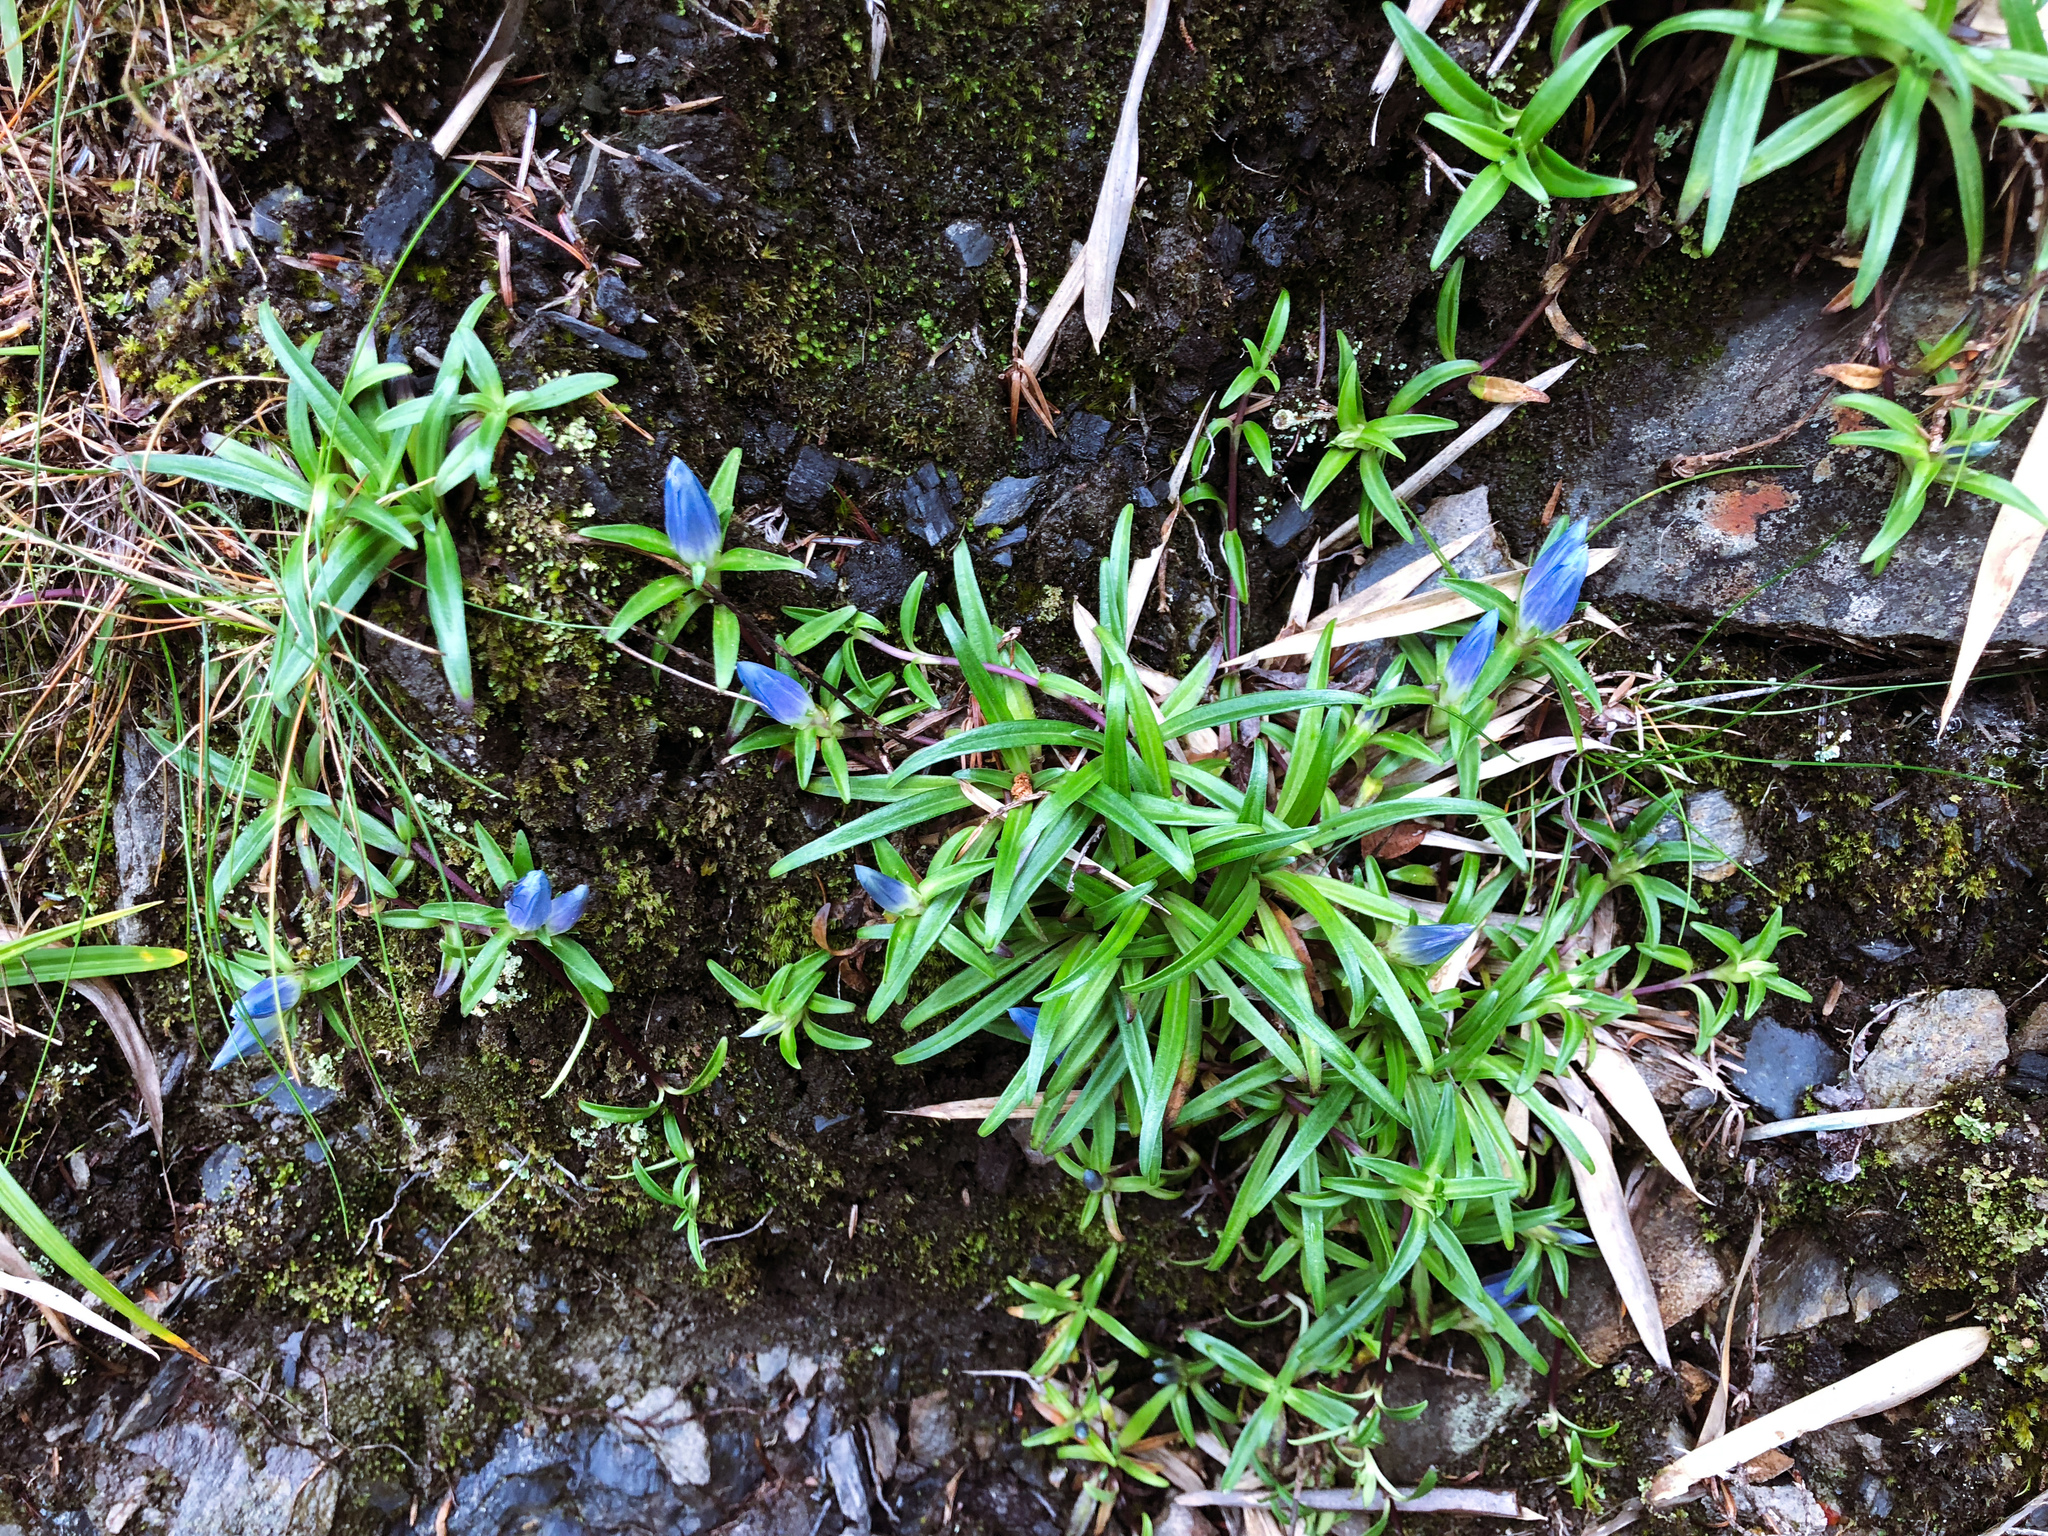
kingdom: Plantae
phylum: Tracheophyta
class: Magnoliopsida
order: Gentianales
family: Gentianaceae
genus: Gentiana
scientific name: Gentiana davidii
